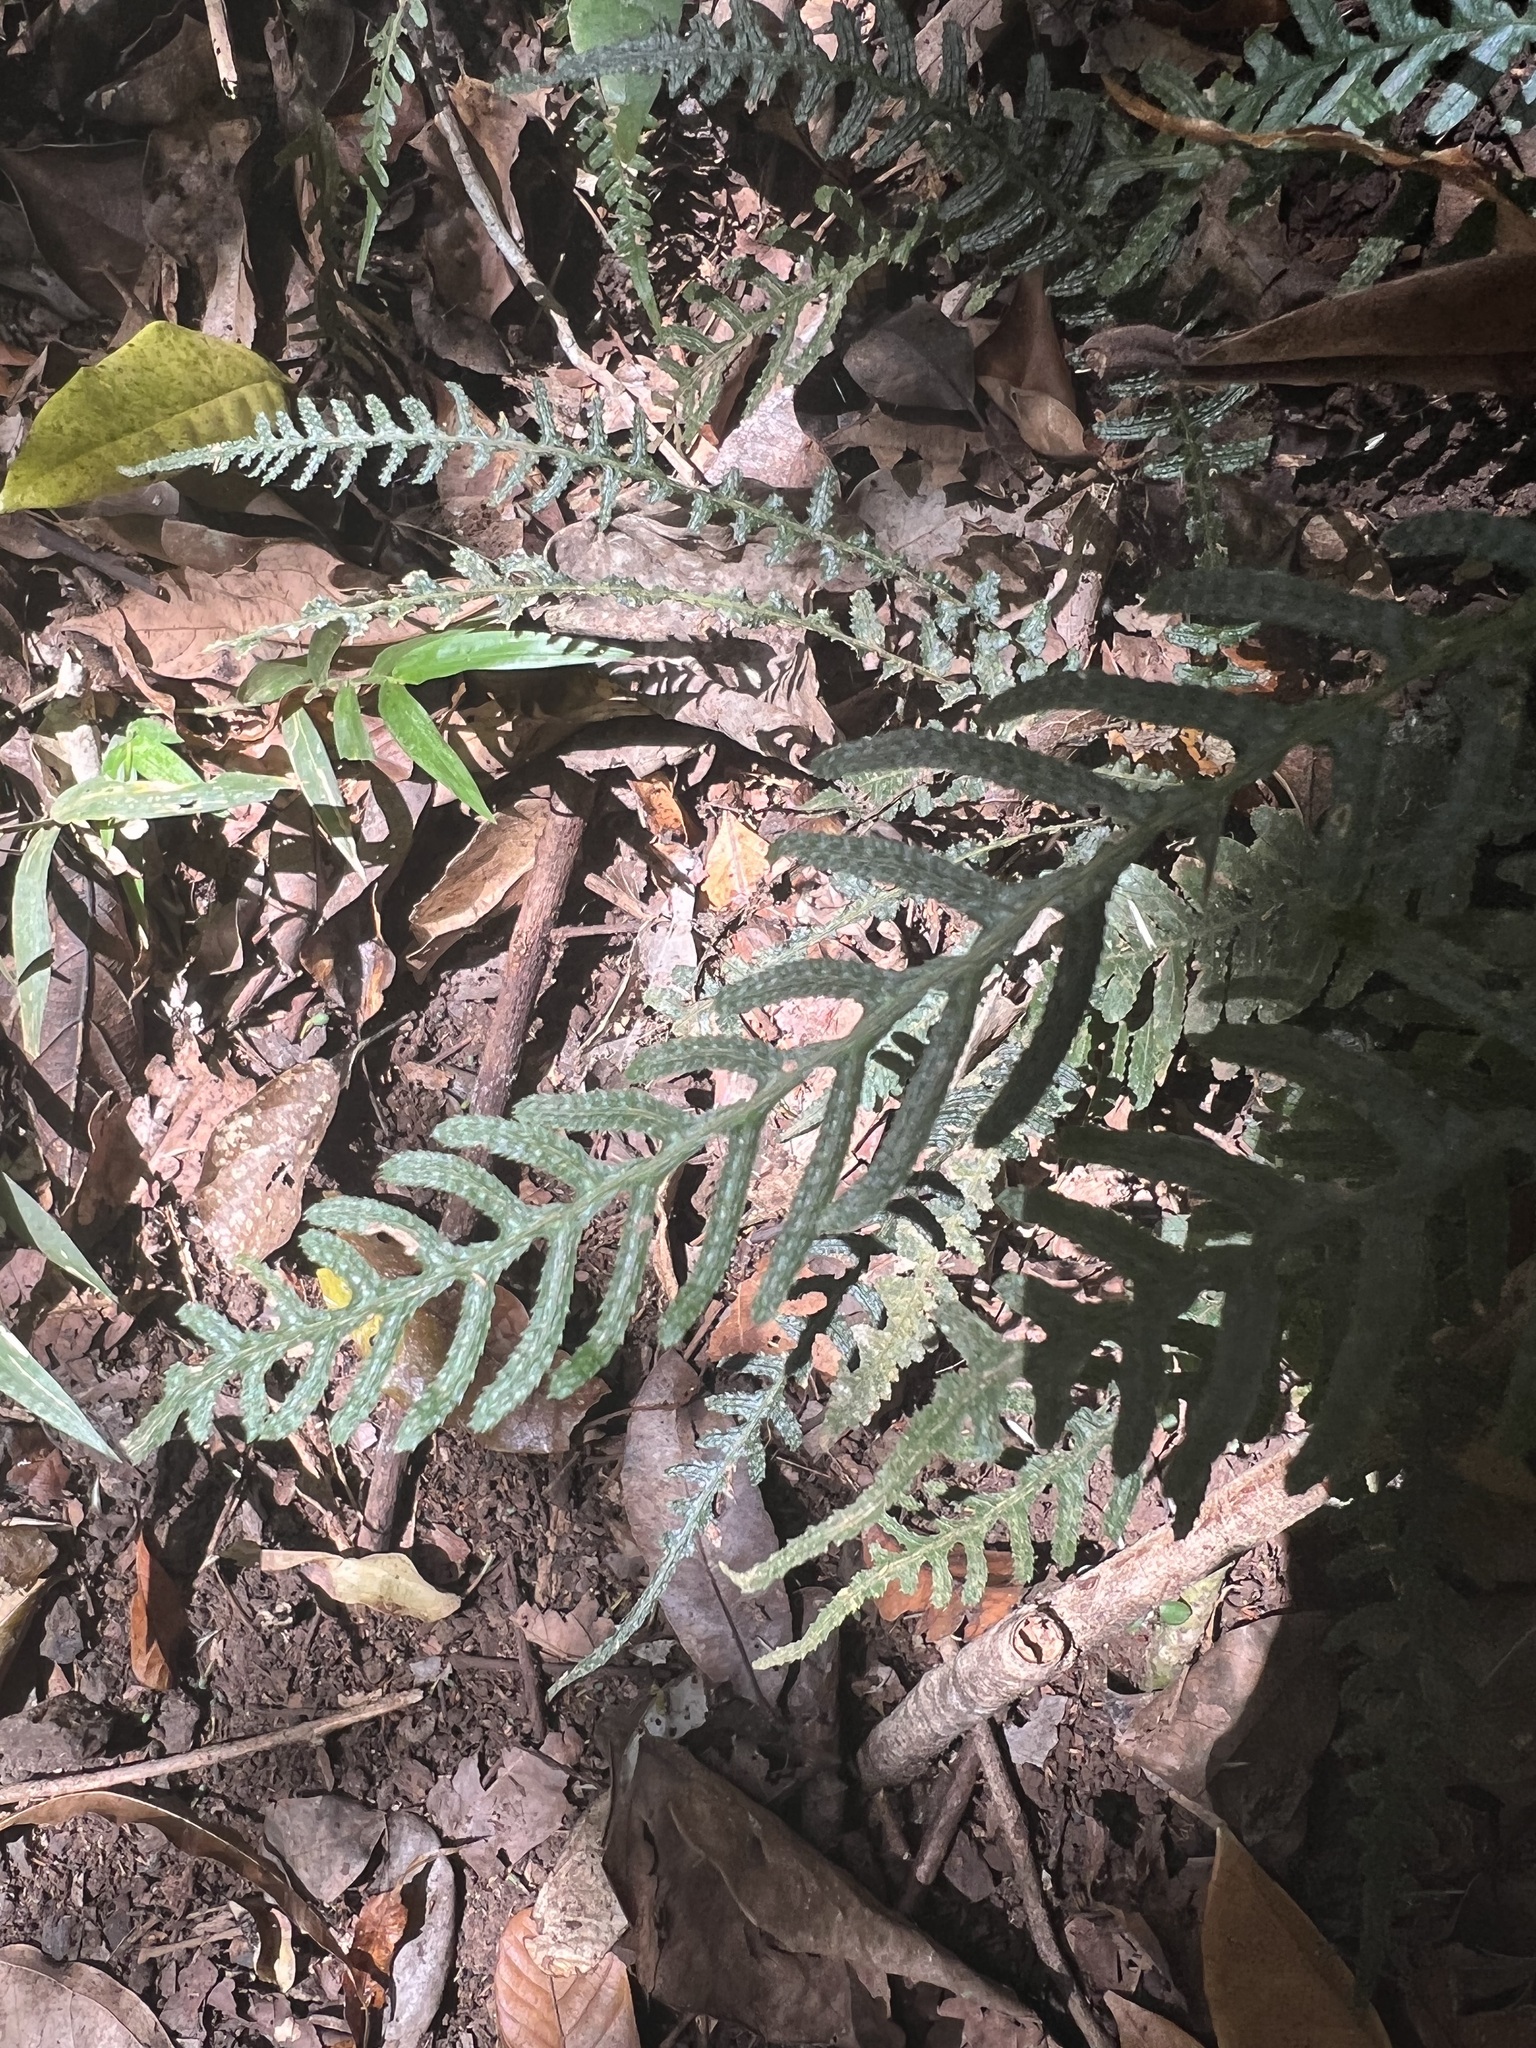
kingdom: Plantae
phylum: Tracheophyta
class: Polypodiopsida
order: Polypodiales
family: Blechnaceae
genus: Doodia
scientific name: Doodia media
